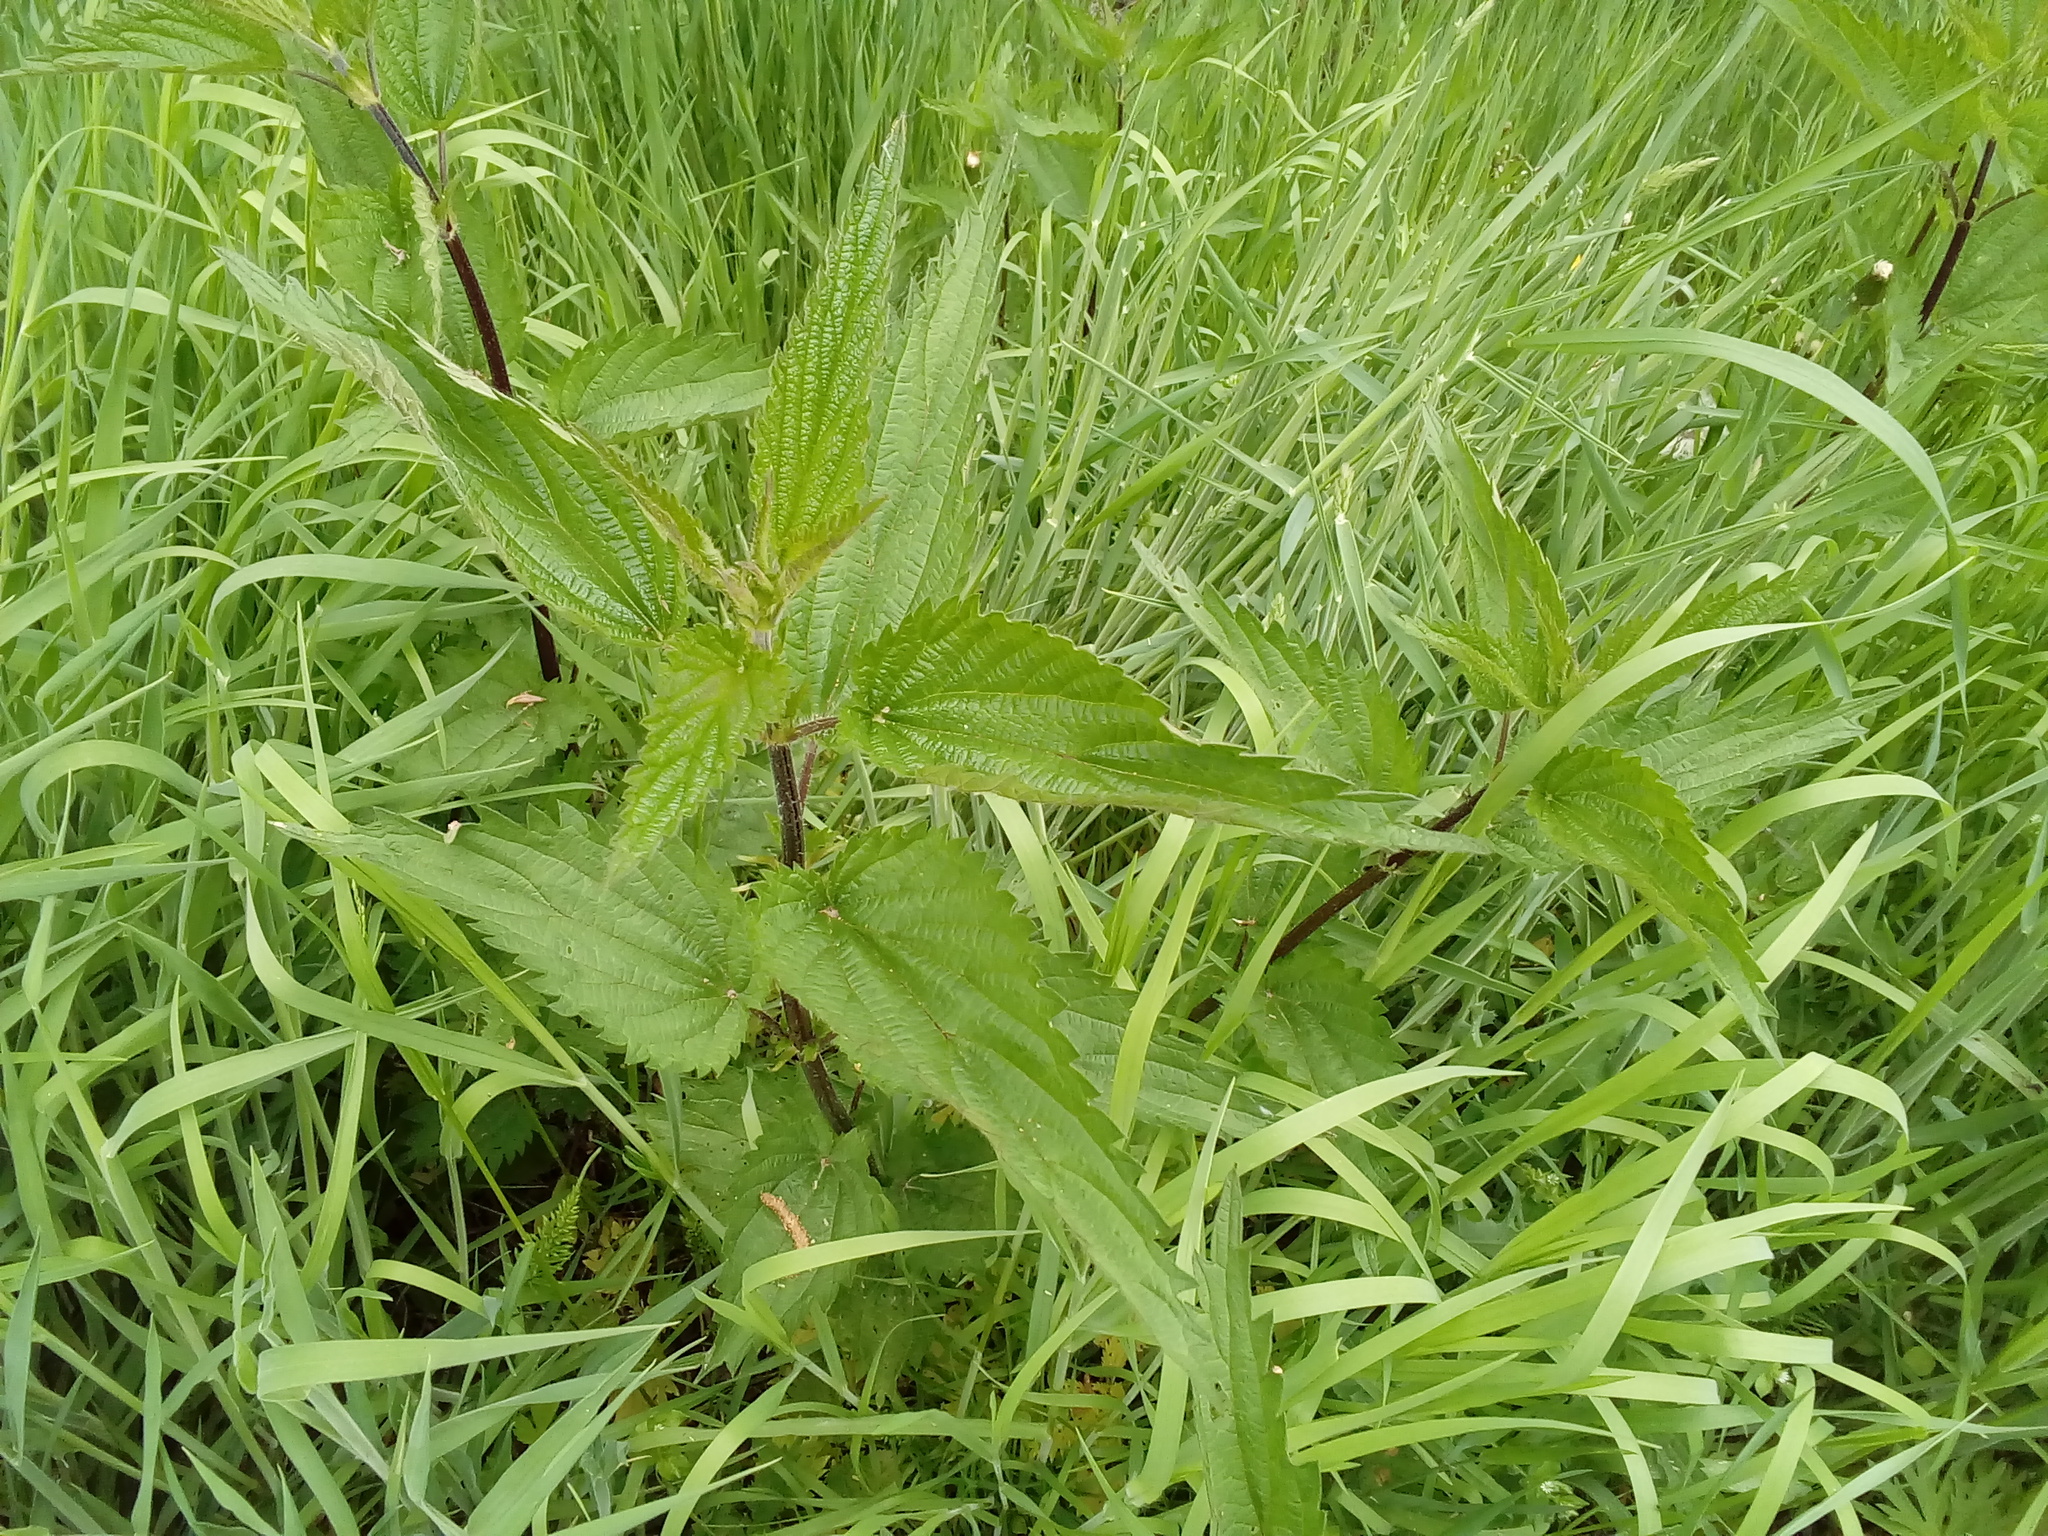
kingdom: Plantae
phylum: Tracheophyta
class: Magnoliopsida
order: Rosales
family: Urticaceae
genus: Urtica
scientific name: Urtica dioica
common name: Common nettle
